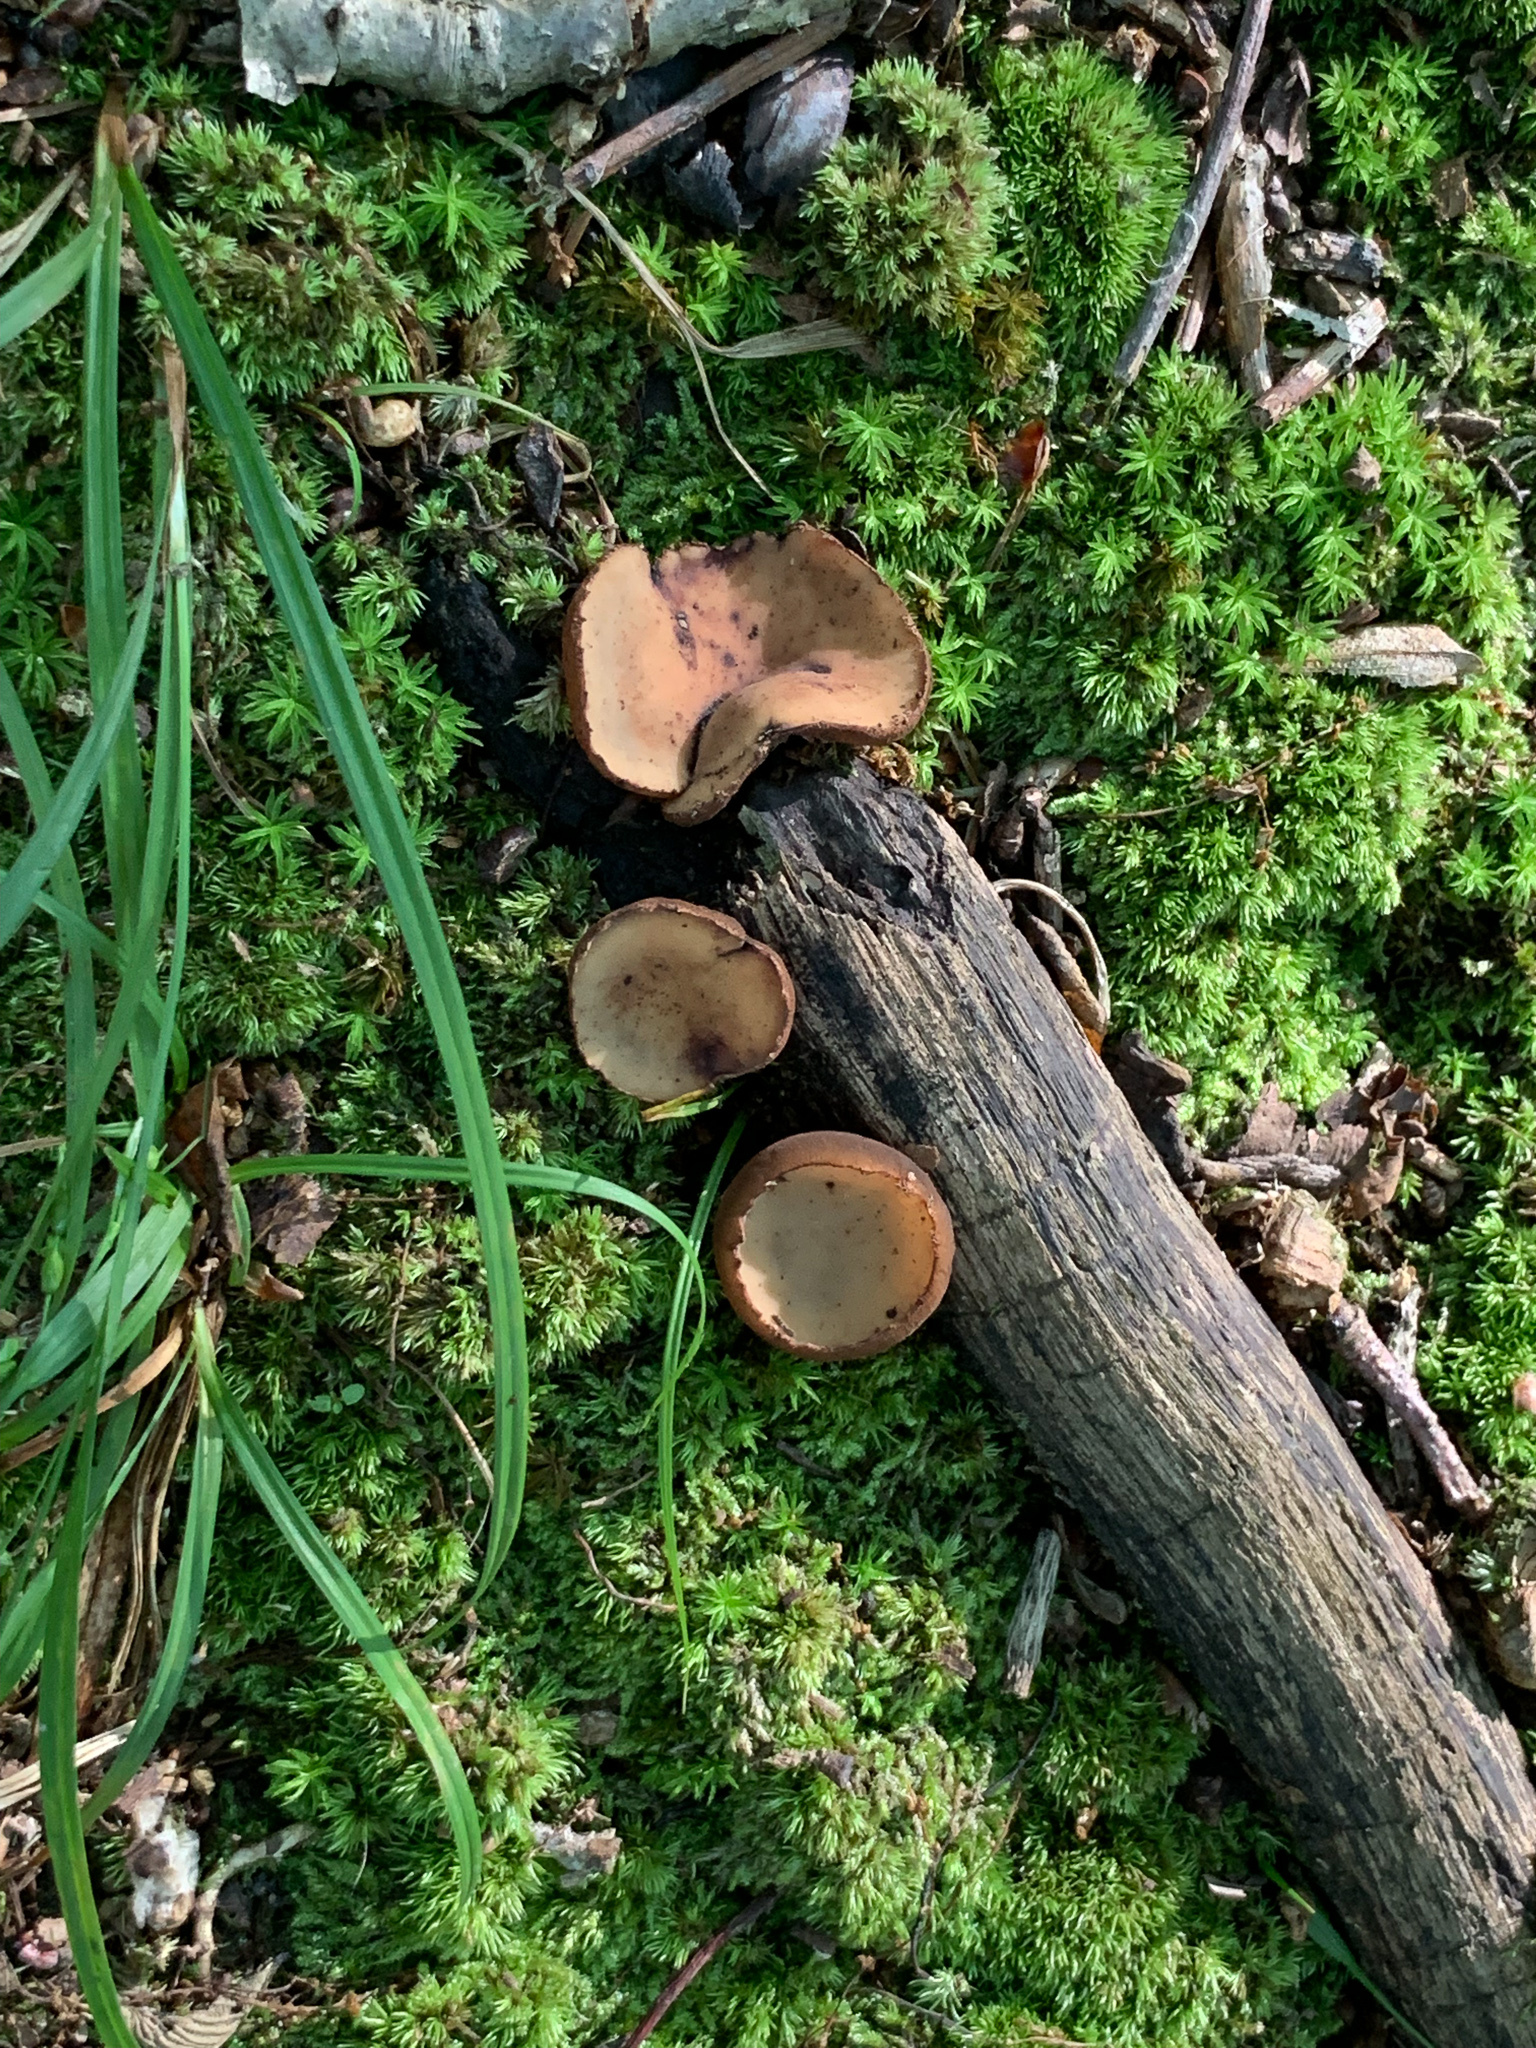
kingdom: Fungi
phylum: Ascomycota
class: Pezizomycetes
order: Pezizales
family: Sarcosomataceae
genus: Galiella
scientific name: Galiella rufa
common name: Hairy rubber cup
